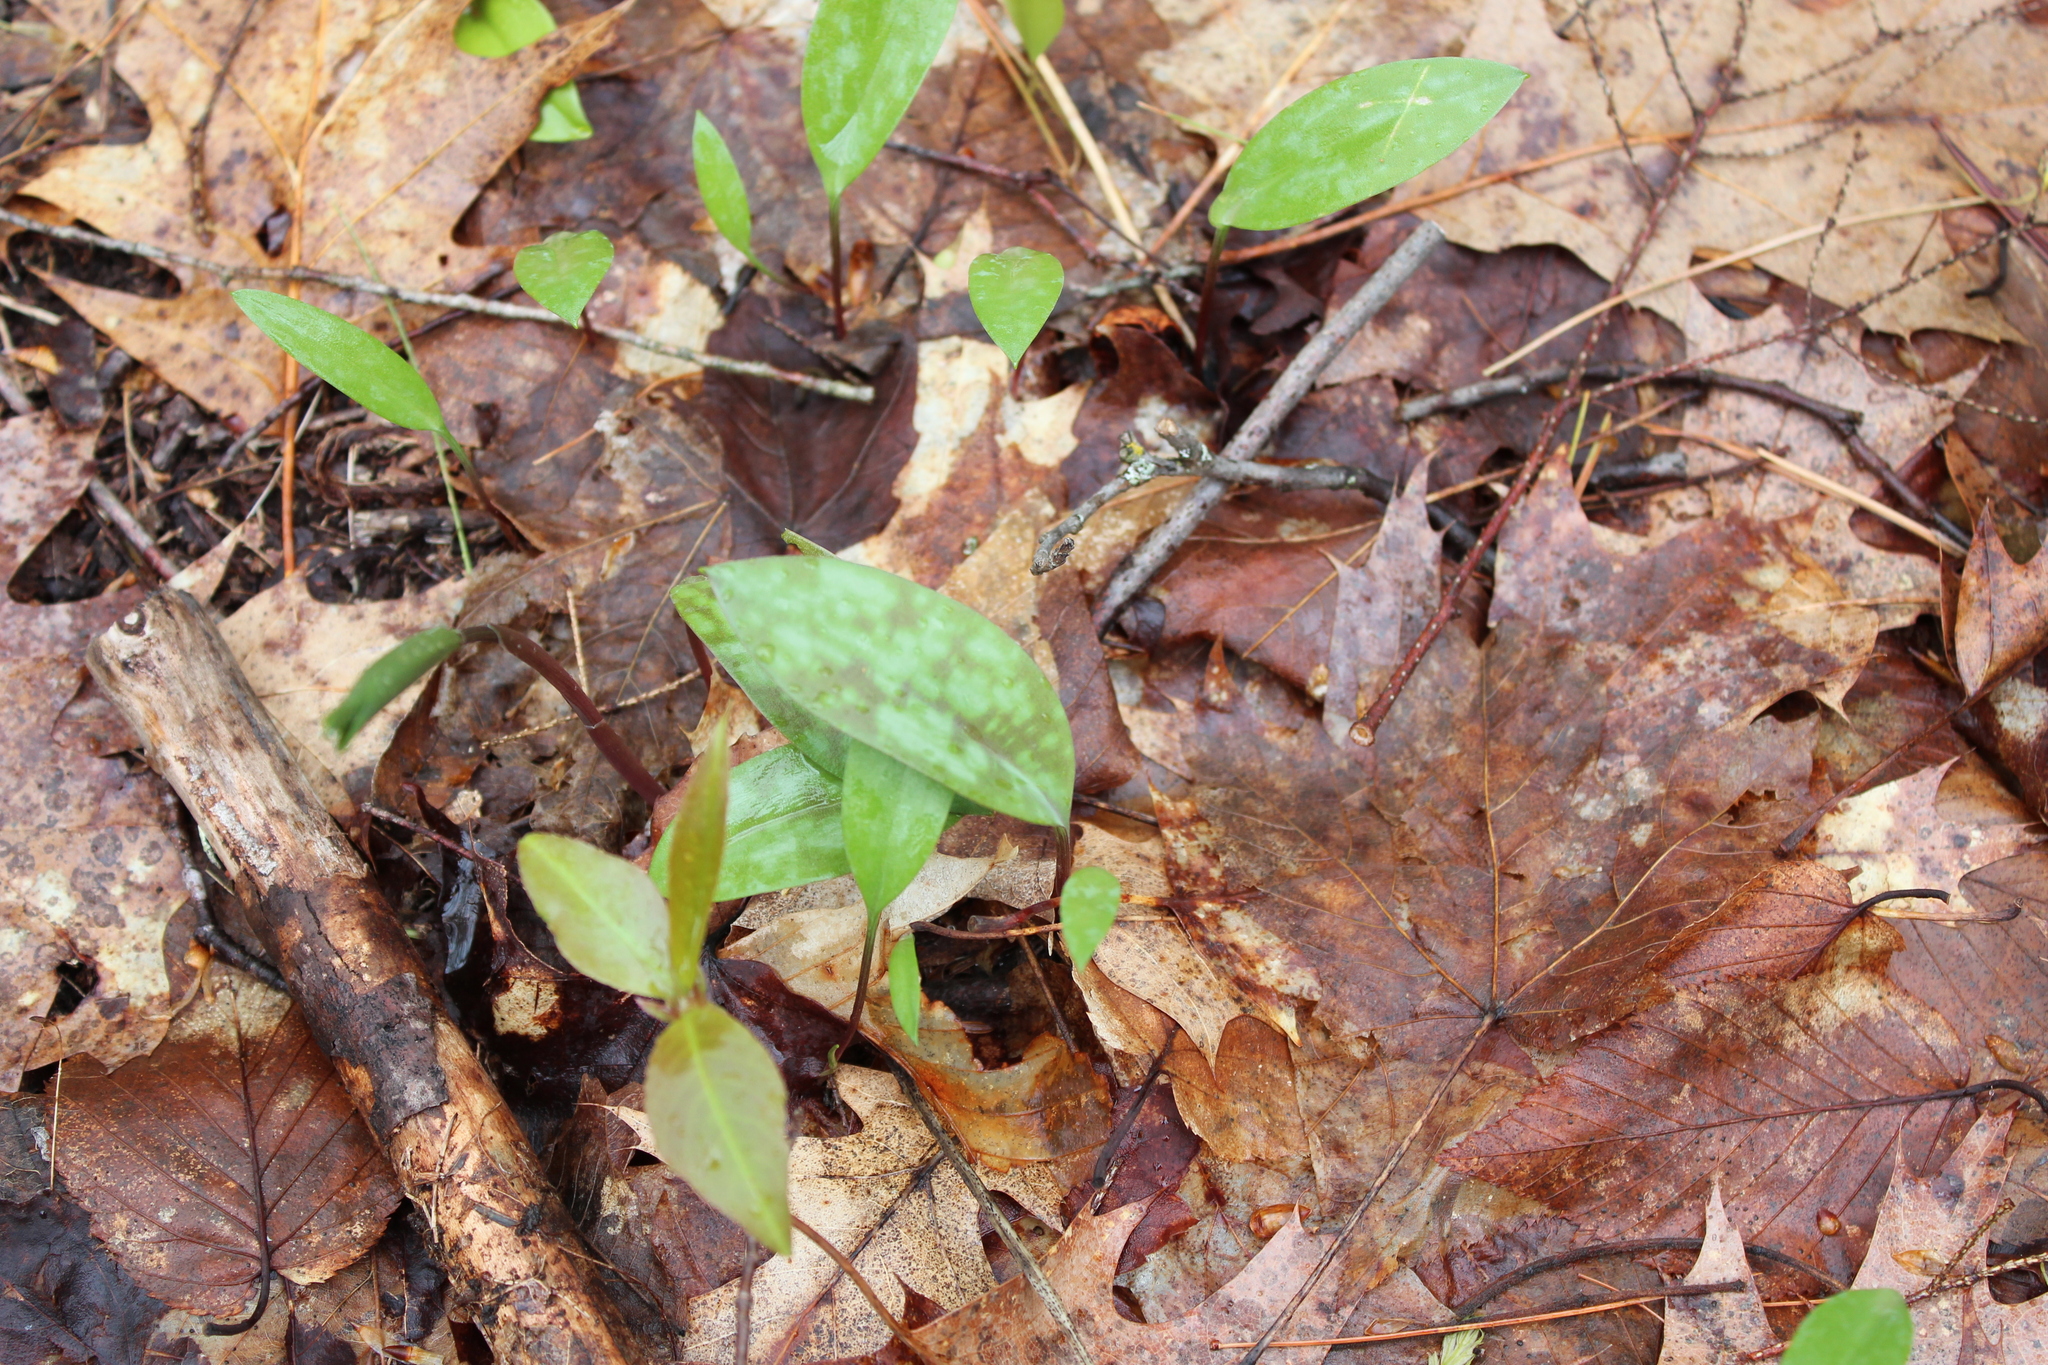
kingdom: Plantae
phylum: Tracheophyta
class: Liliopsida
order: Liliales
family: Liliaceae
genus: Erythronium
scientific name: Erythronium americanum
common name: Yellow adder's-tongue
